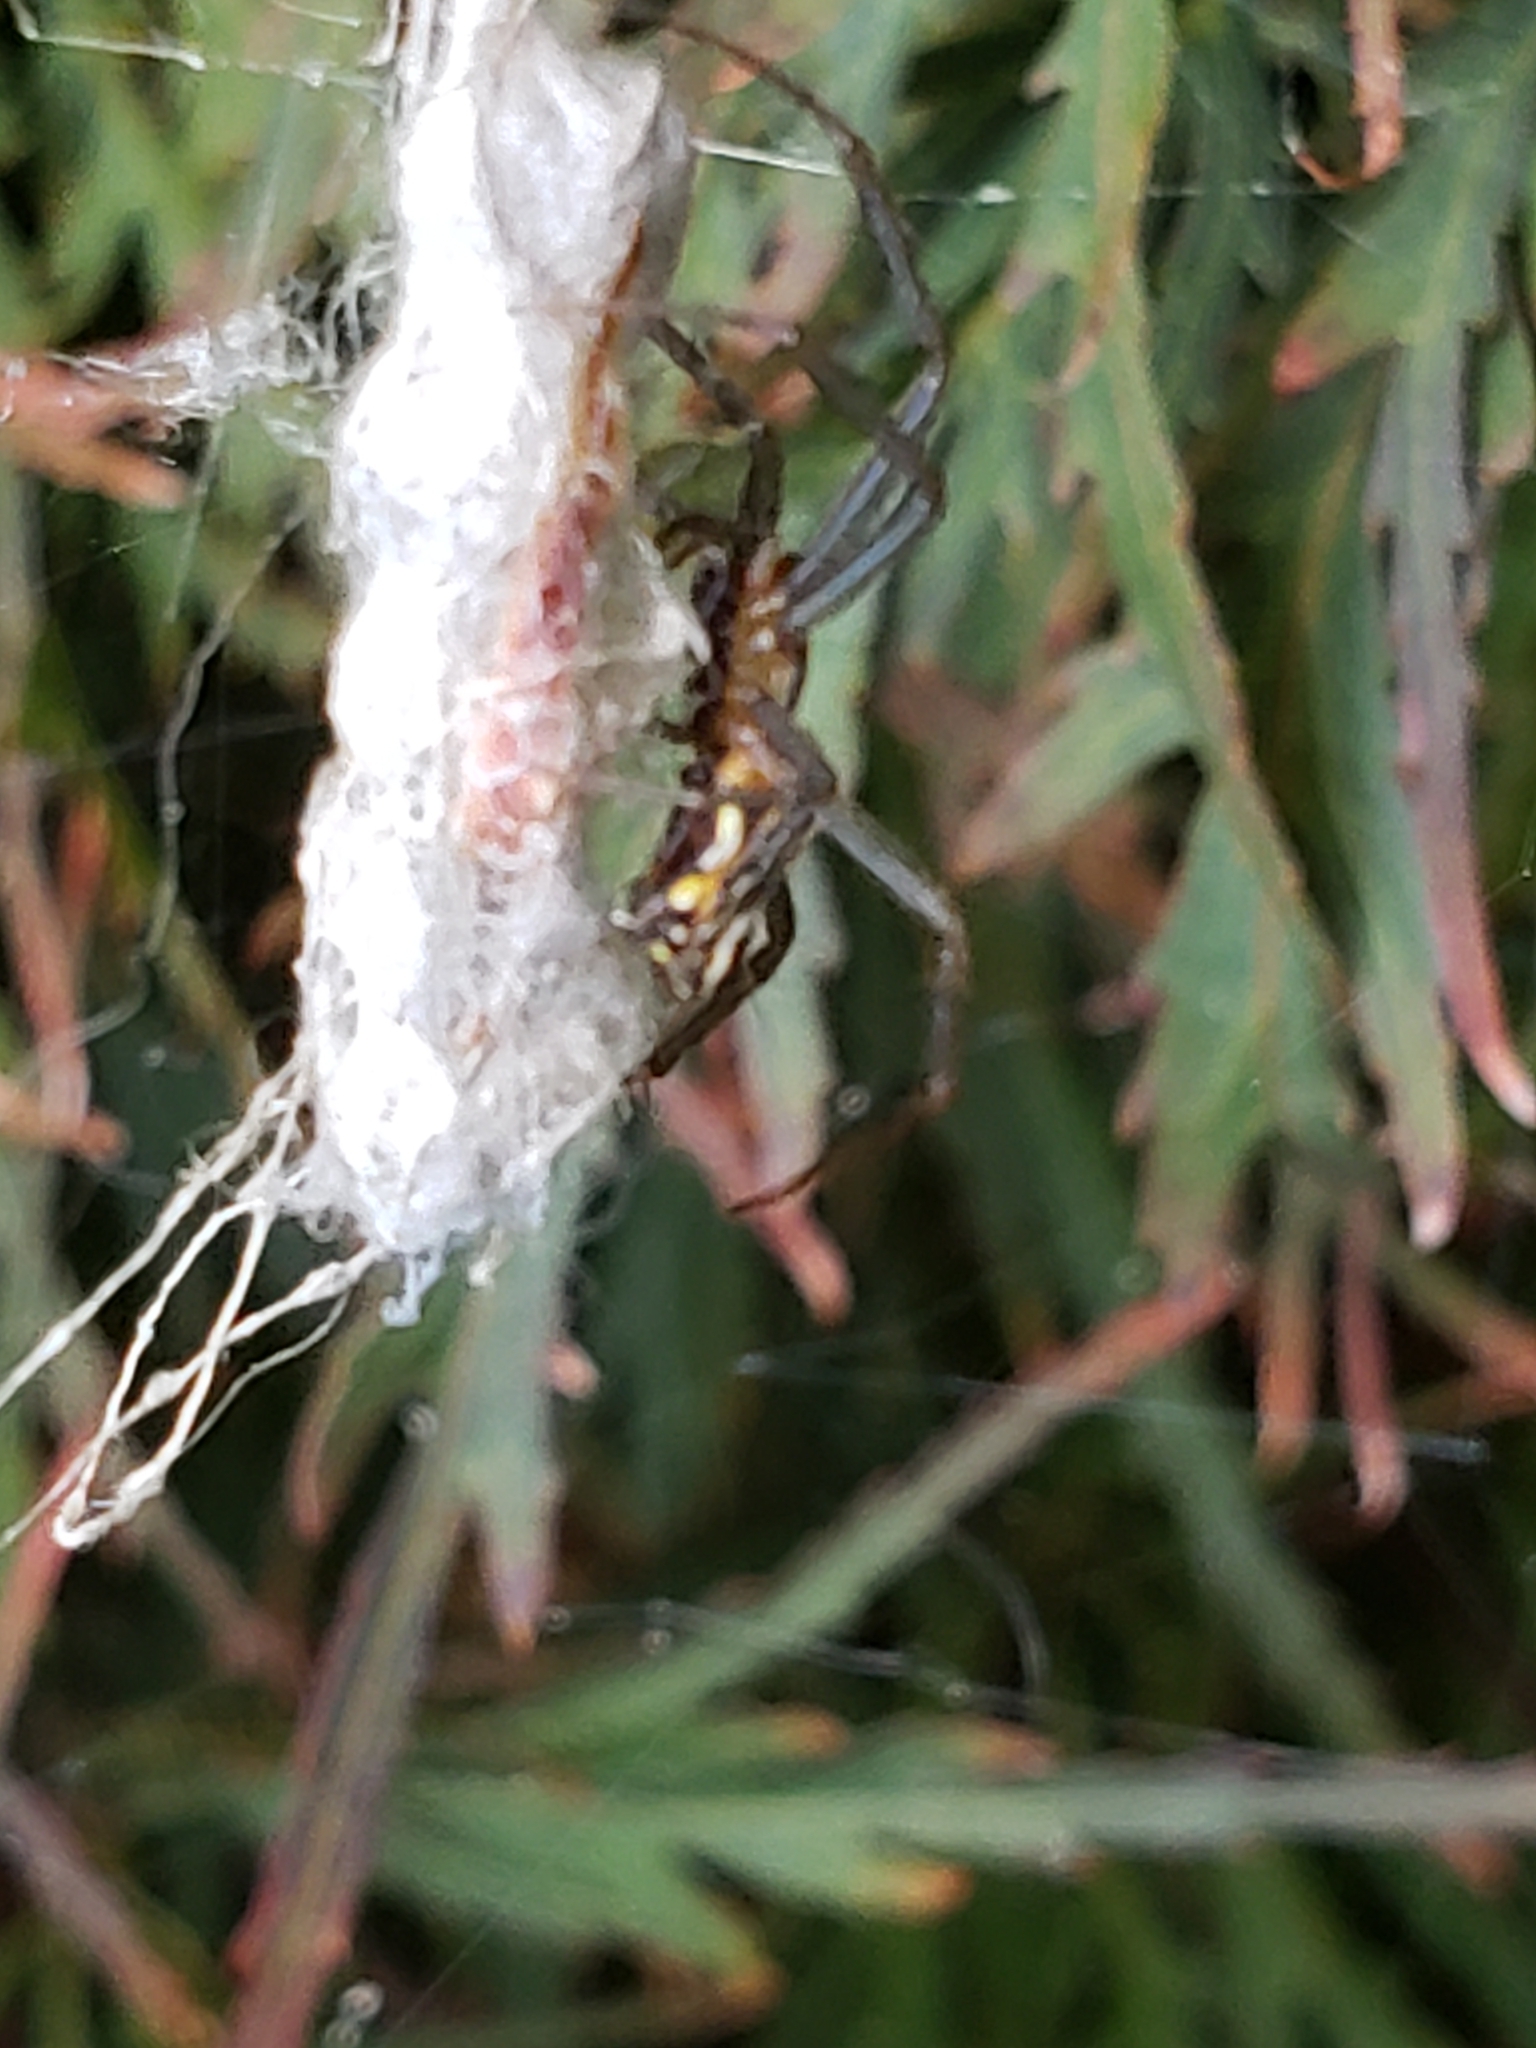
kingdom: Animalia
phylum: Arthropoda
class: Arachnida
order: Araneae
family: Araneidae
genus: Mecynogea
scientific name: Mecynogea lemniscata
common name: Orb weavers
